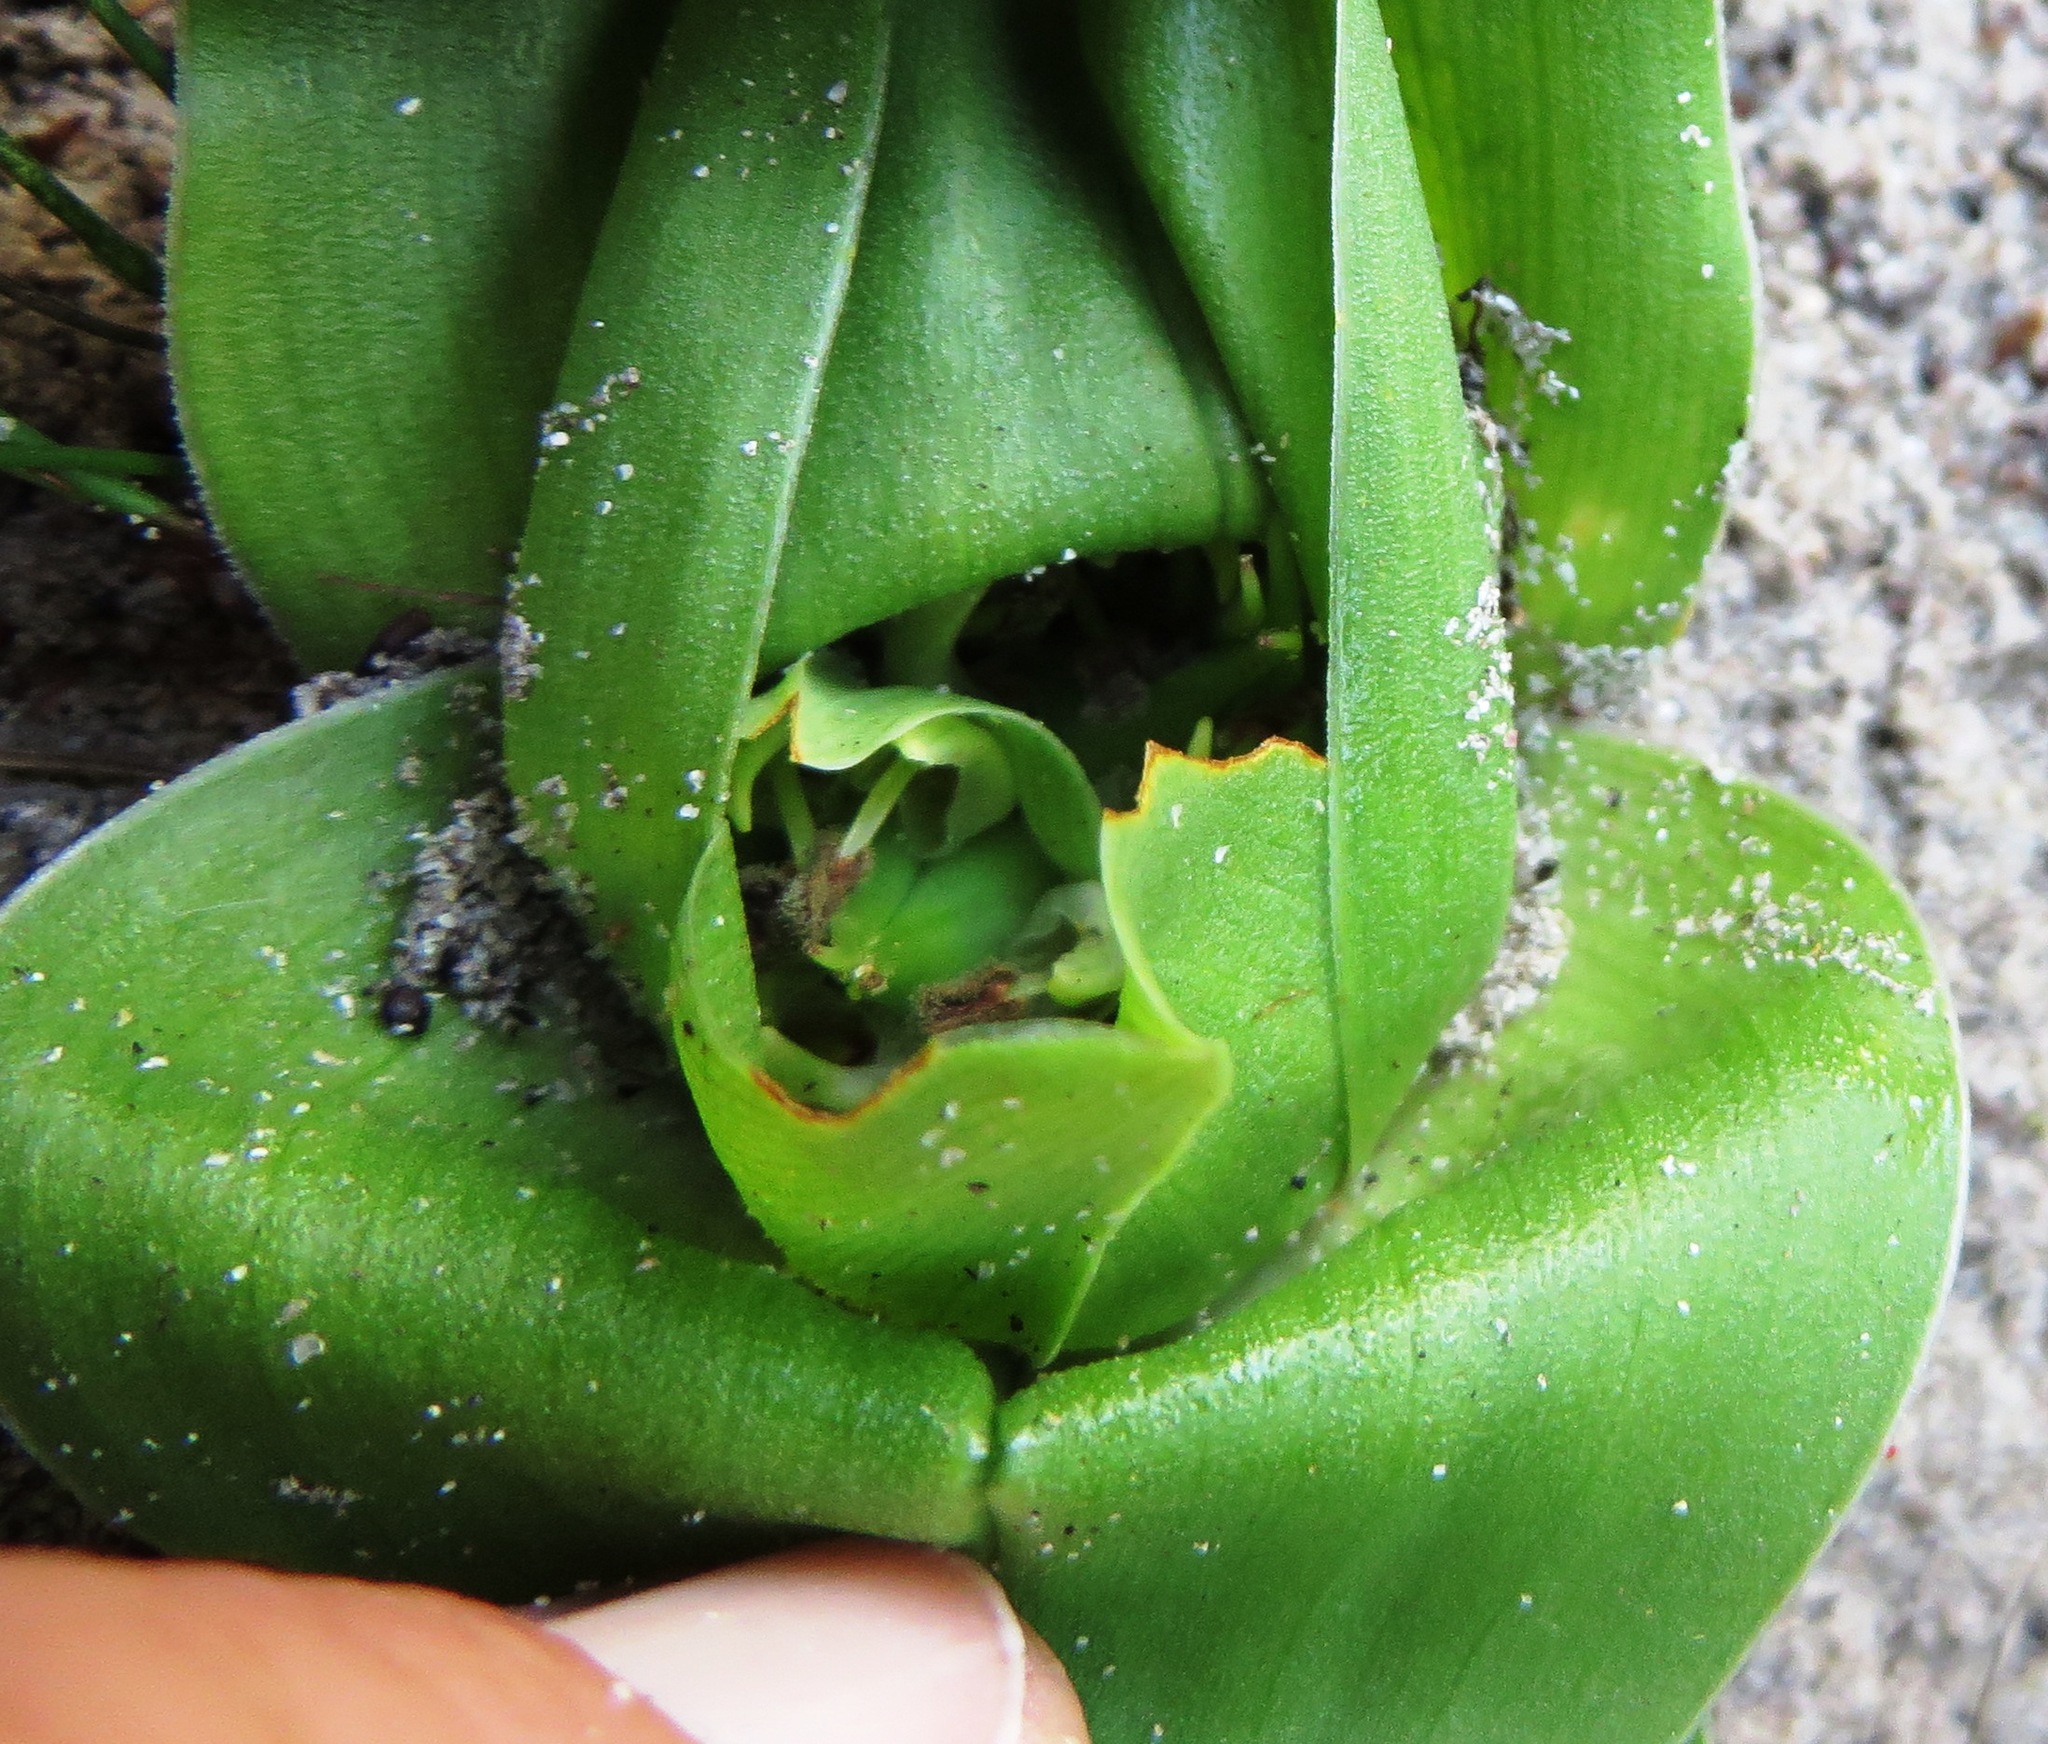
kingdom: Plantae
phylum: Tracheophyta
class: Liliopsida
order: Liliales
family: Colchicaceae
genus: Colchicum
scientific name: Colchicum eucomoides
